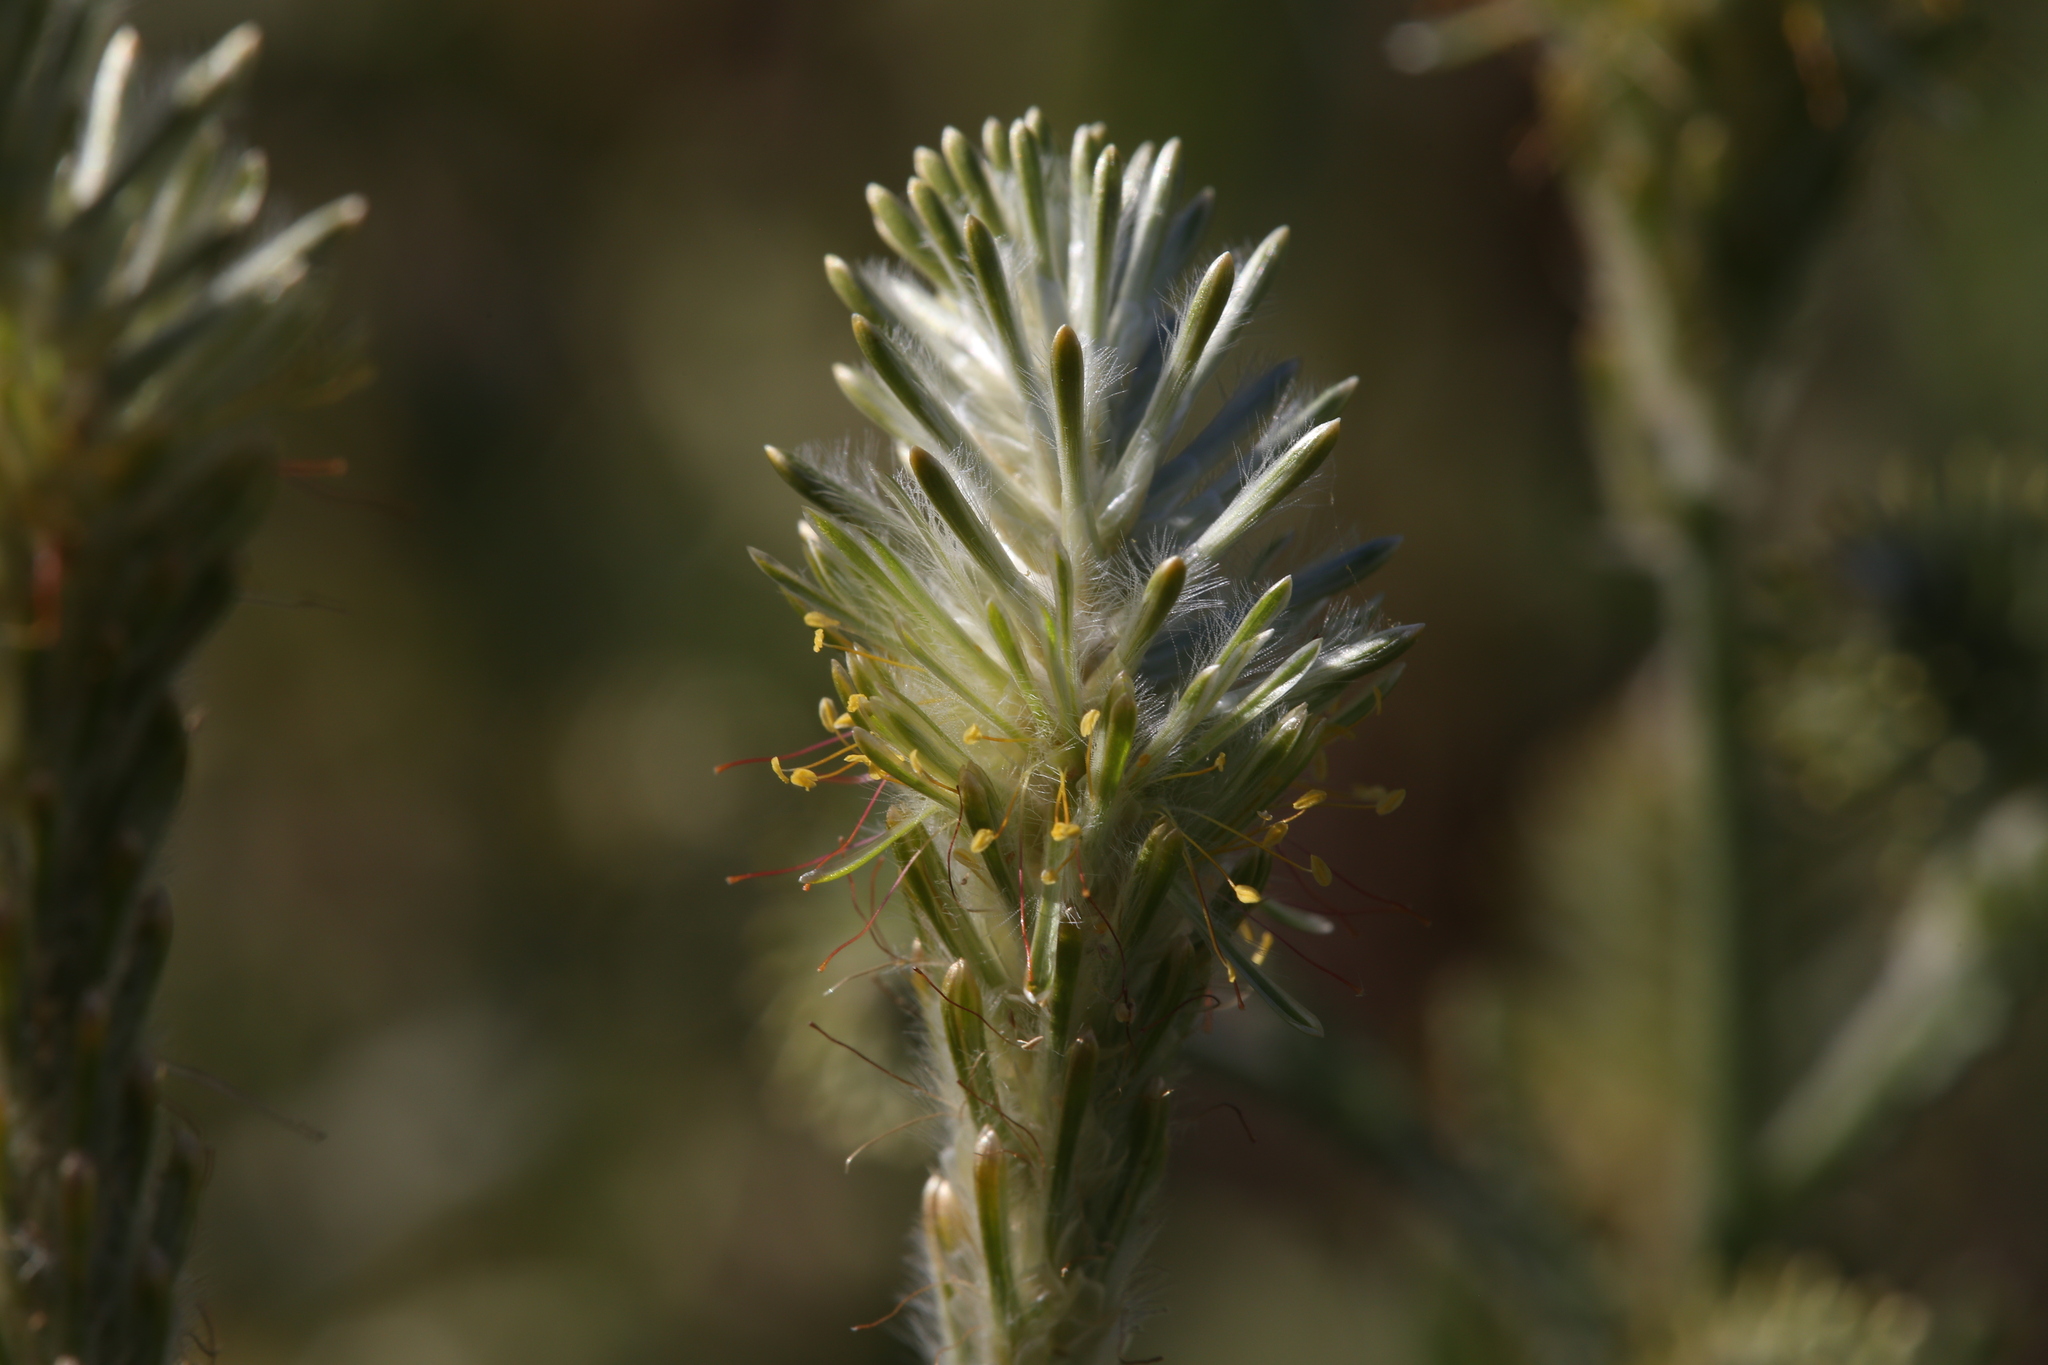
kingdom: Plantae
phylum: Tracheophyta
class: Magnoliopsida
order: Caryophyllales
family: Amaranthaceae
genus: Ptilotus
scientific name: Ptilotus polystachyus
